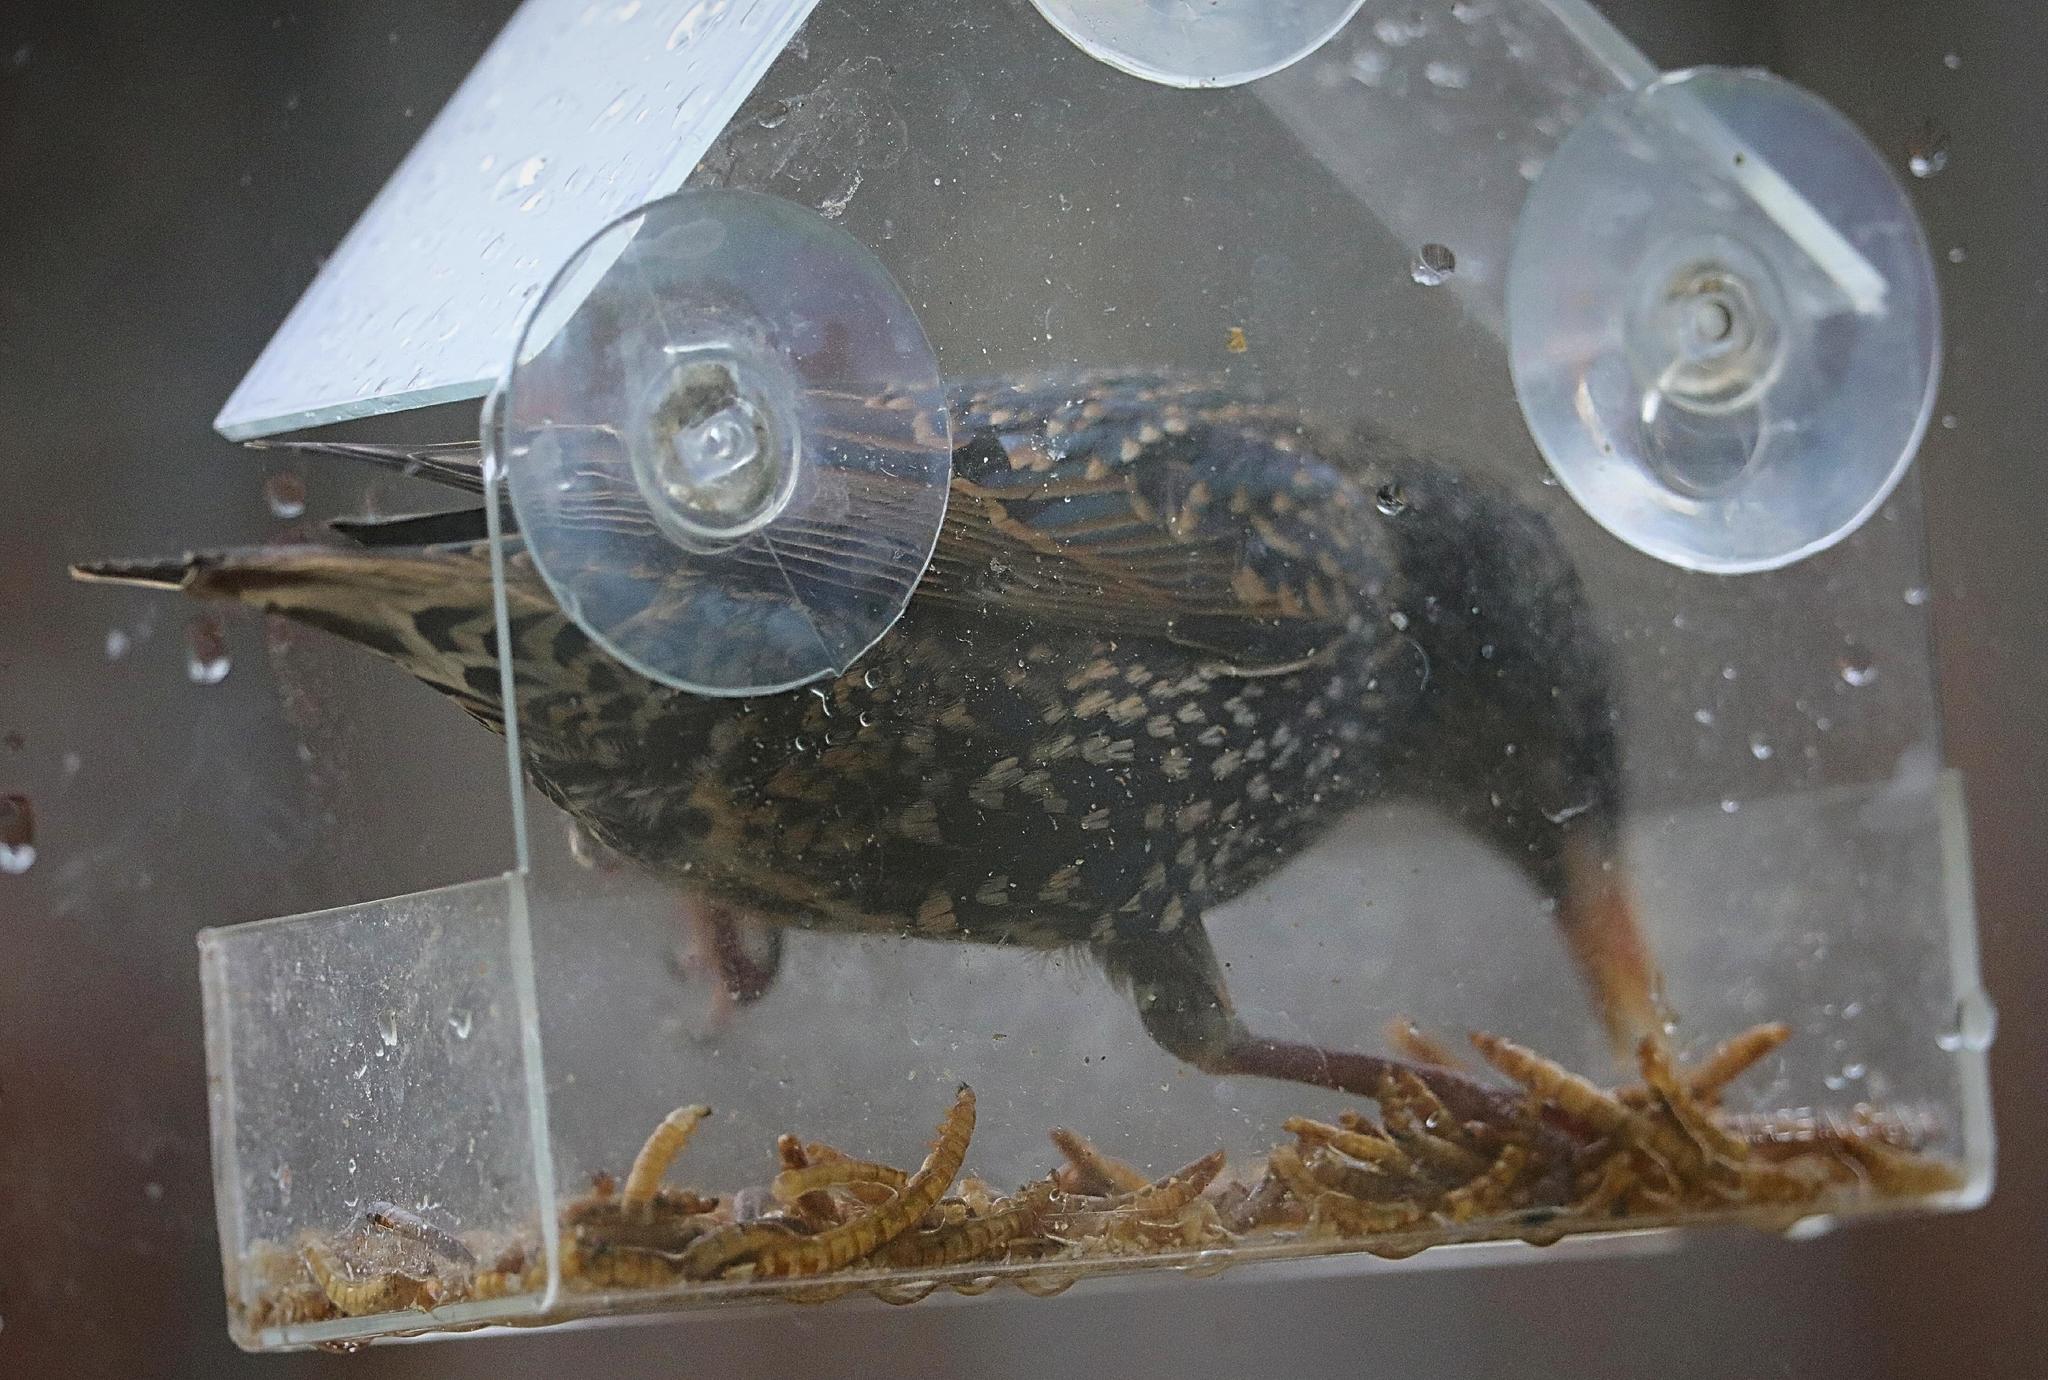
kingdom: Animalia
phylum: Chordata
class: Aves
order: Passeriformes
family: Sturnidae
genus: Sturnus
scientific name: Sturnus vulgaris
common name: Common starling
